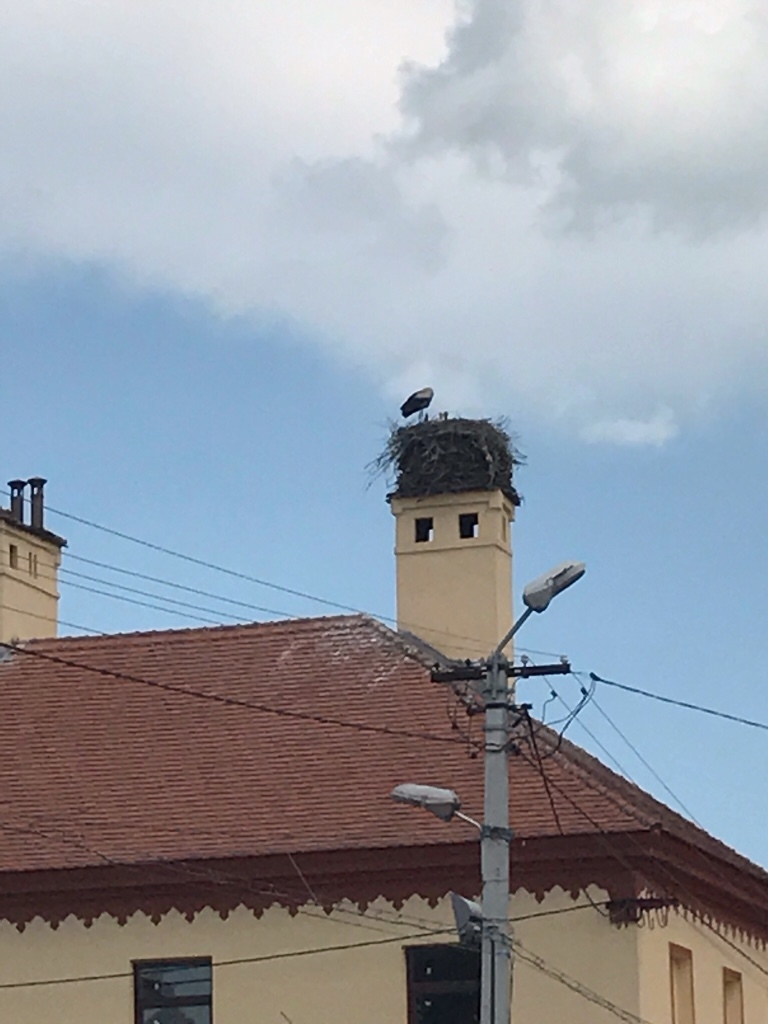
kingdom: Animalia
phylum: Chordata
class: Aves
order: Ciconiiformes
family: Ciconiidae
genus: Ciconia
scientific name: Ciconia ciconia
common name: White stork
